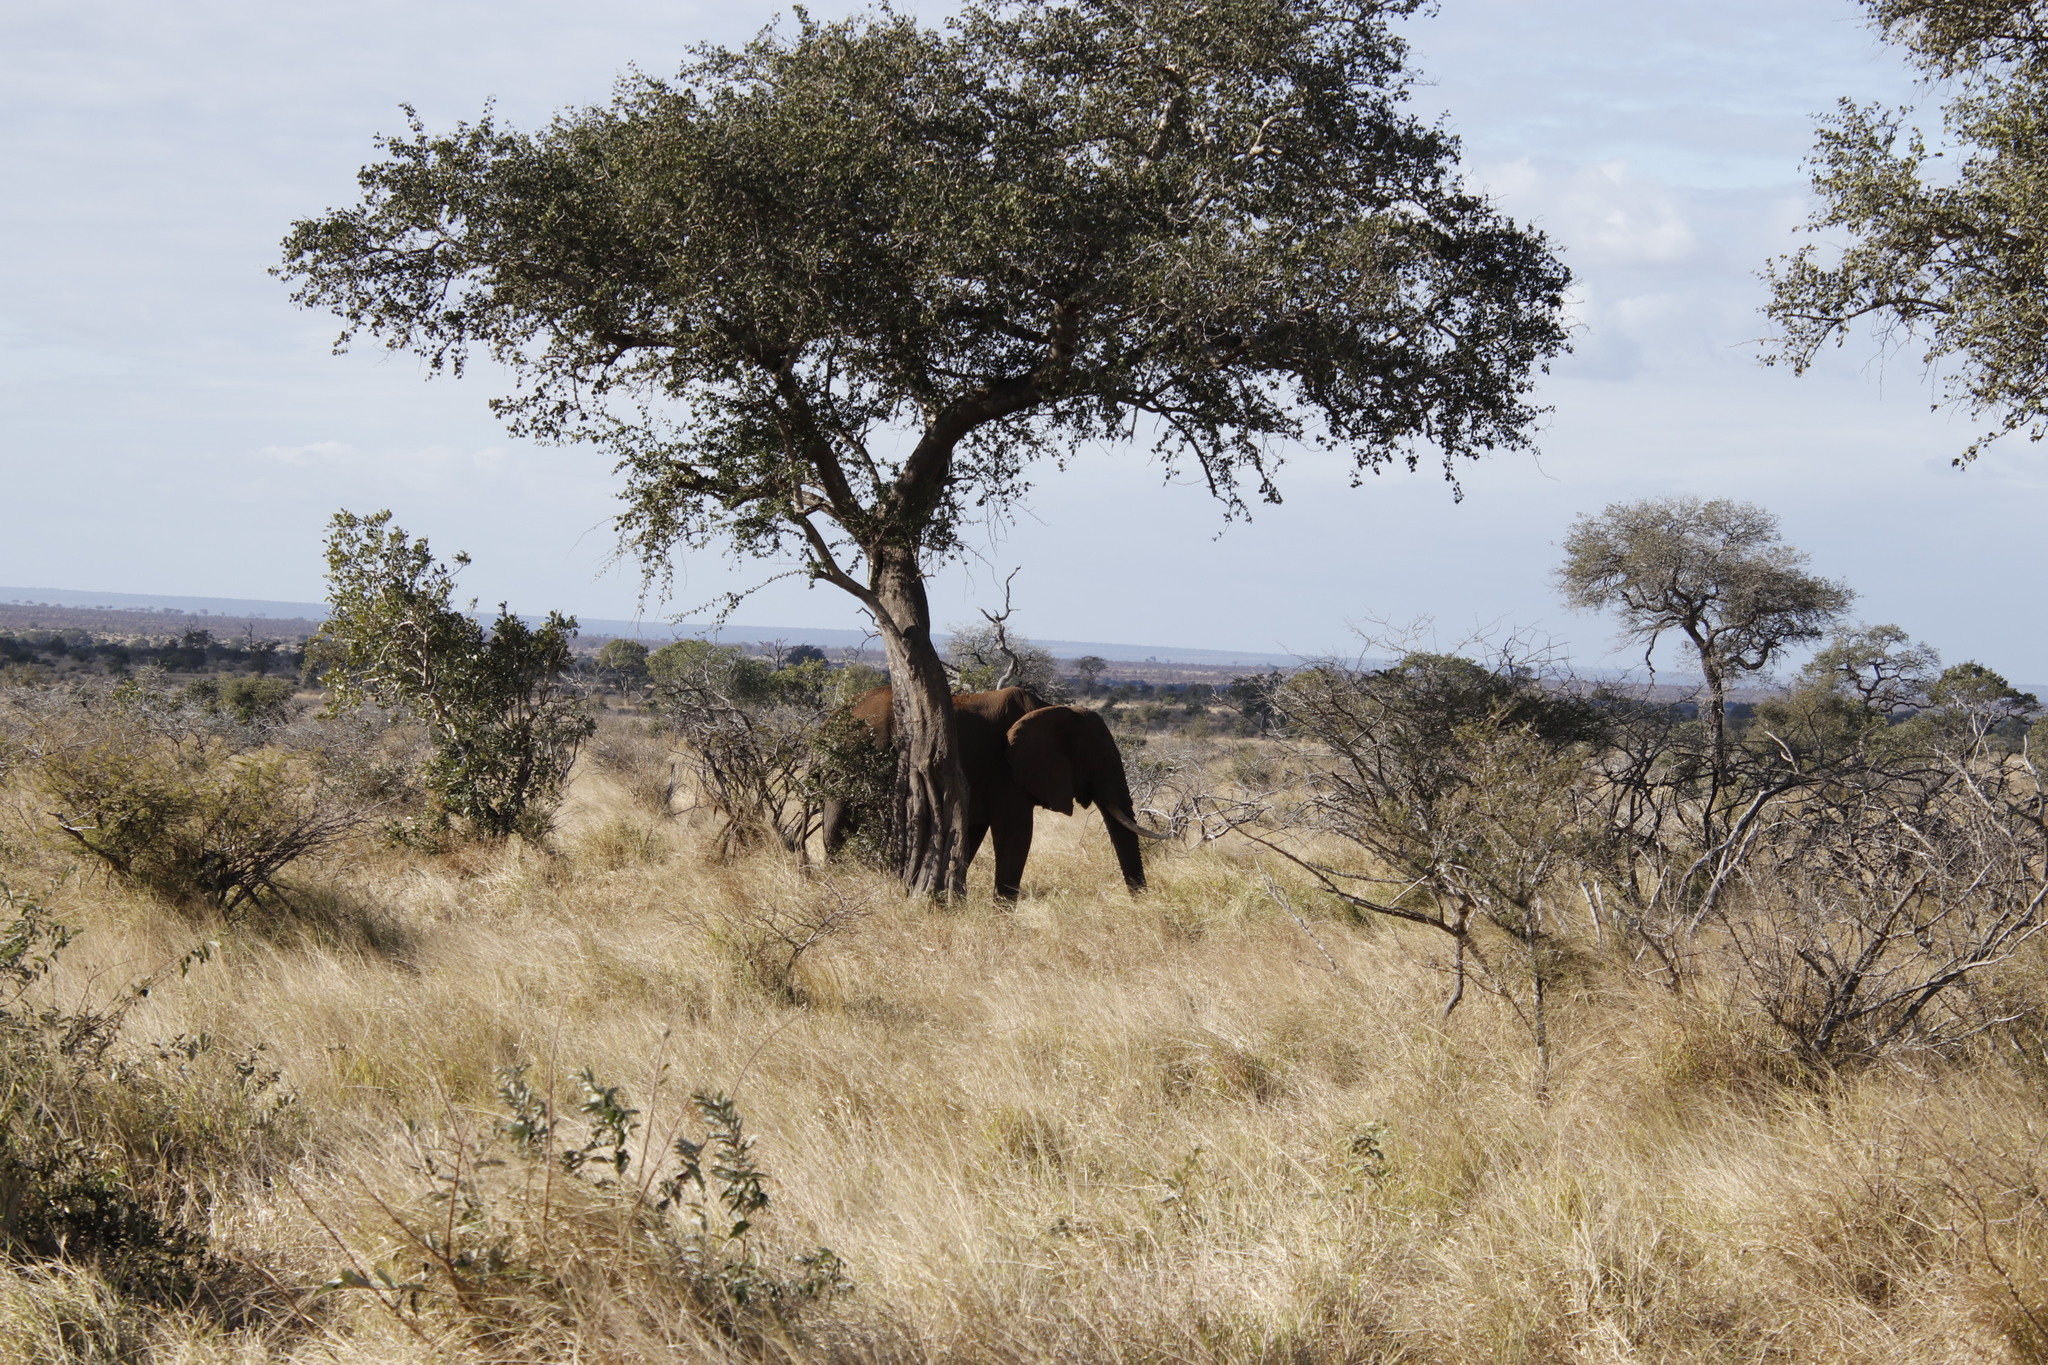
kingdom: Animalia
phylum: Chordata
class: Mammalia
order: Proboscidea
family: Elephantidae
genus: Loxodonta
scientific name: Loxodonta africana
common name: African elephant
